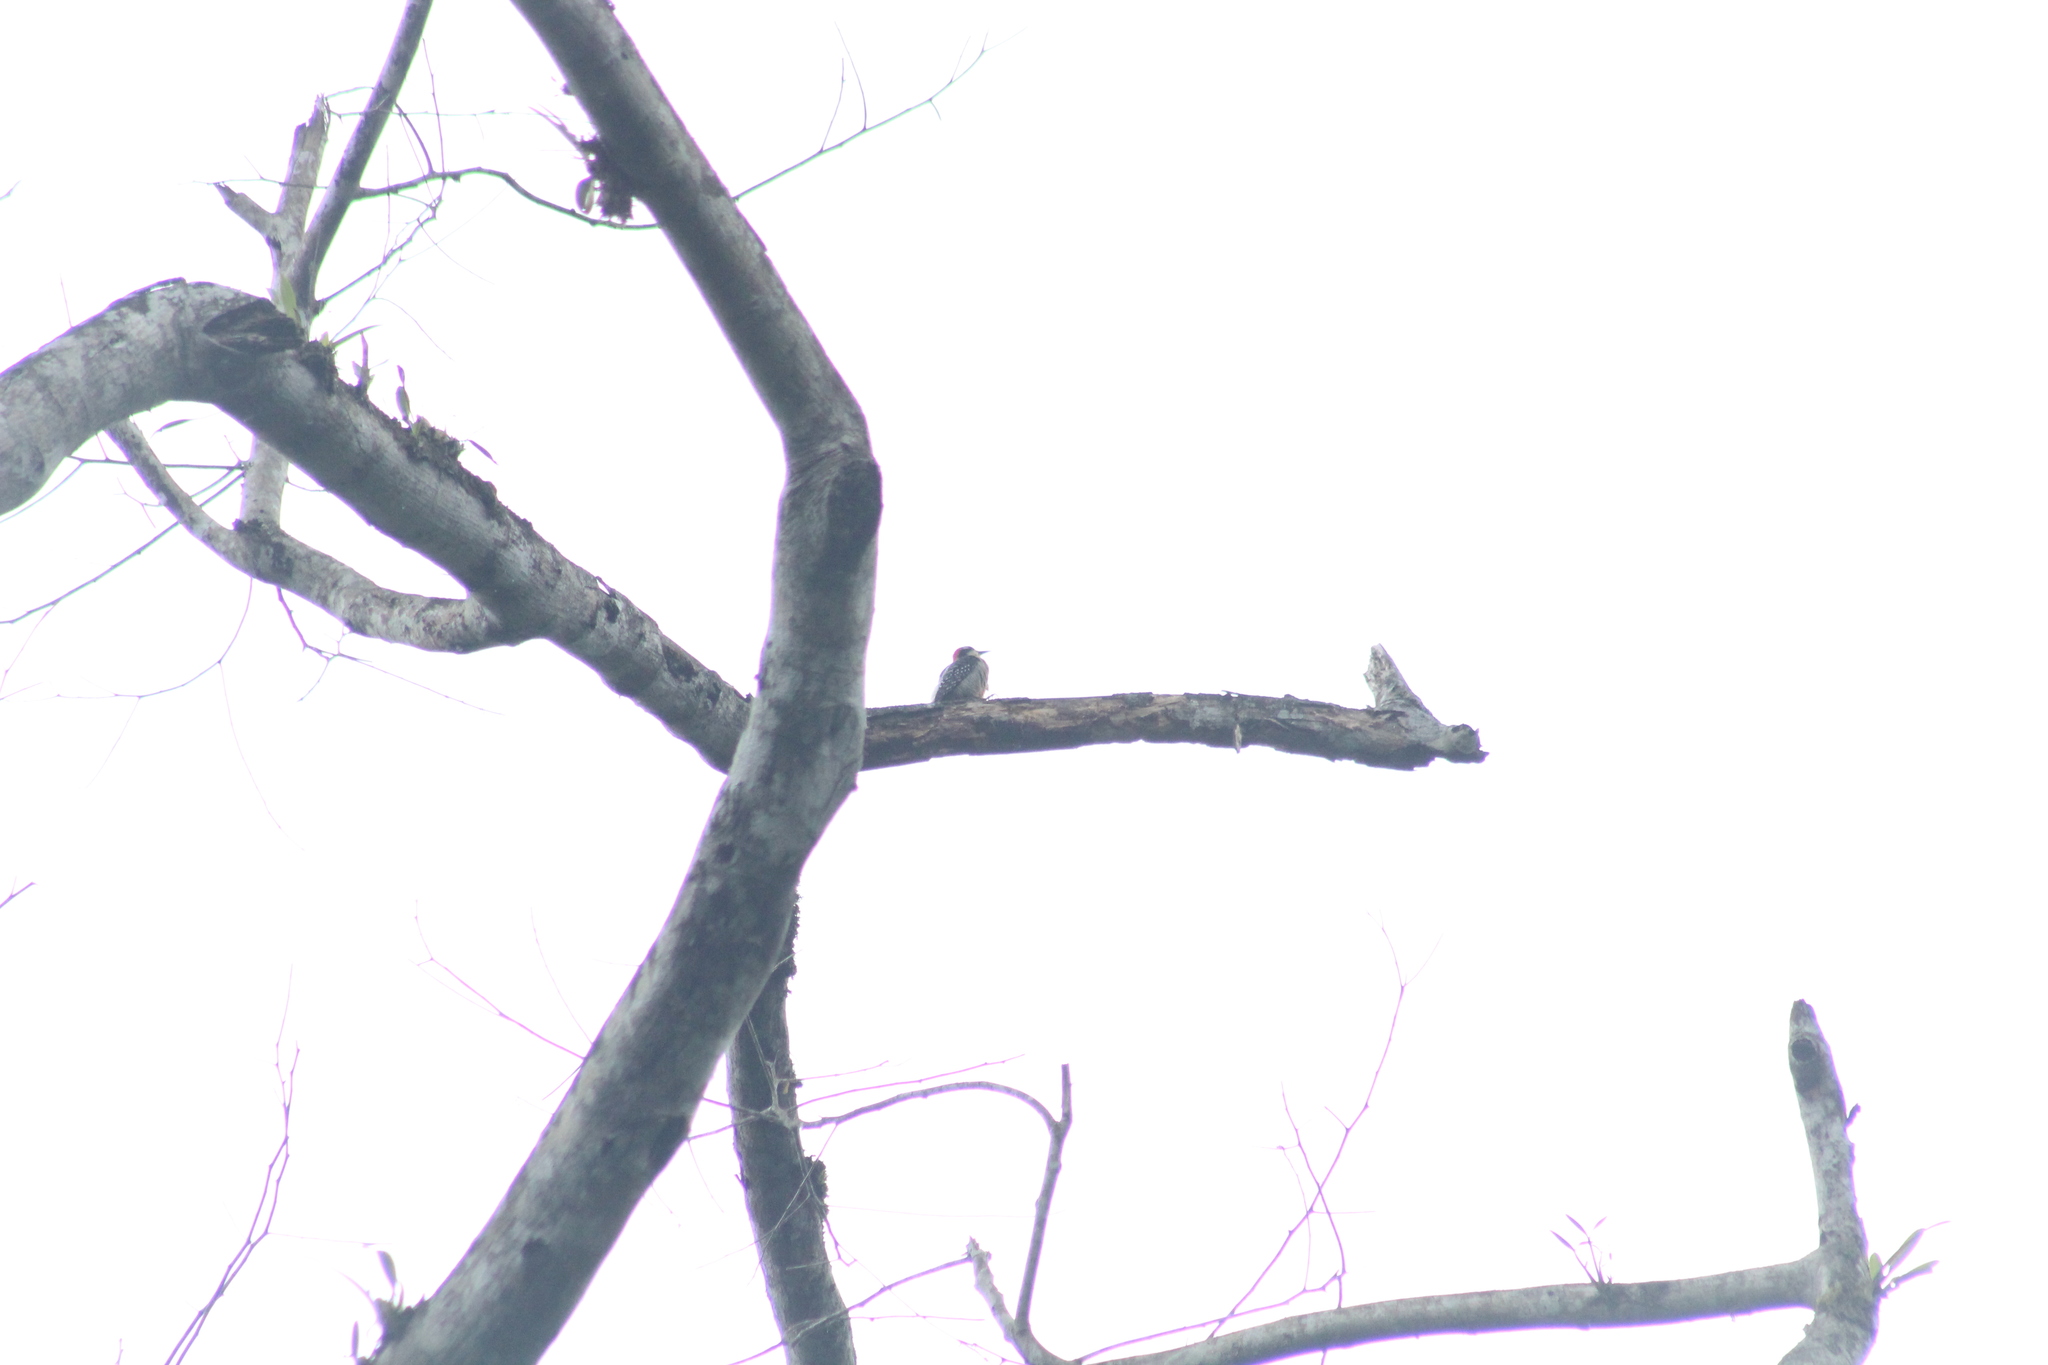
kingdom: Animalia
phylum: Chordata
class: Aves
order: Piciformes
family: Picidae
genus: Melanerpes
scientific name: Melanerpes pucherani
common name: Black-cheeked woodpecker
